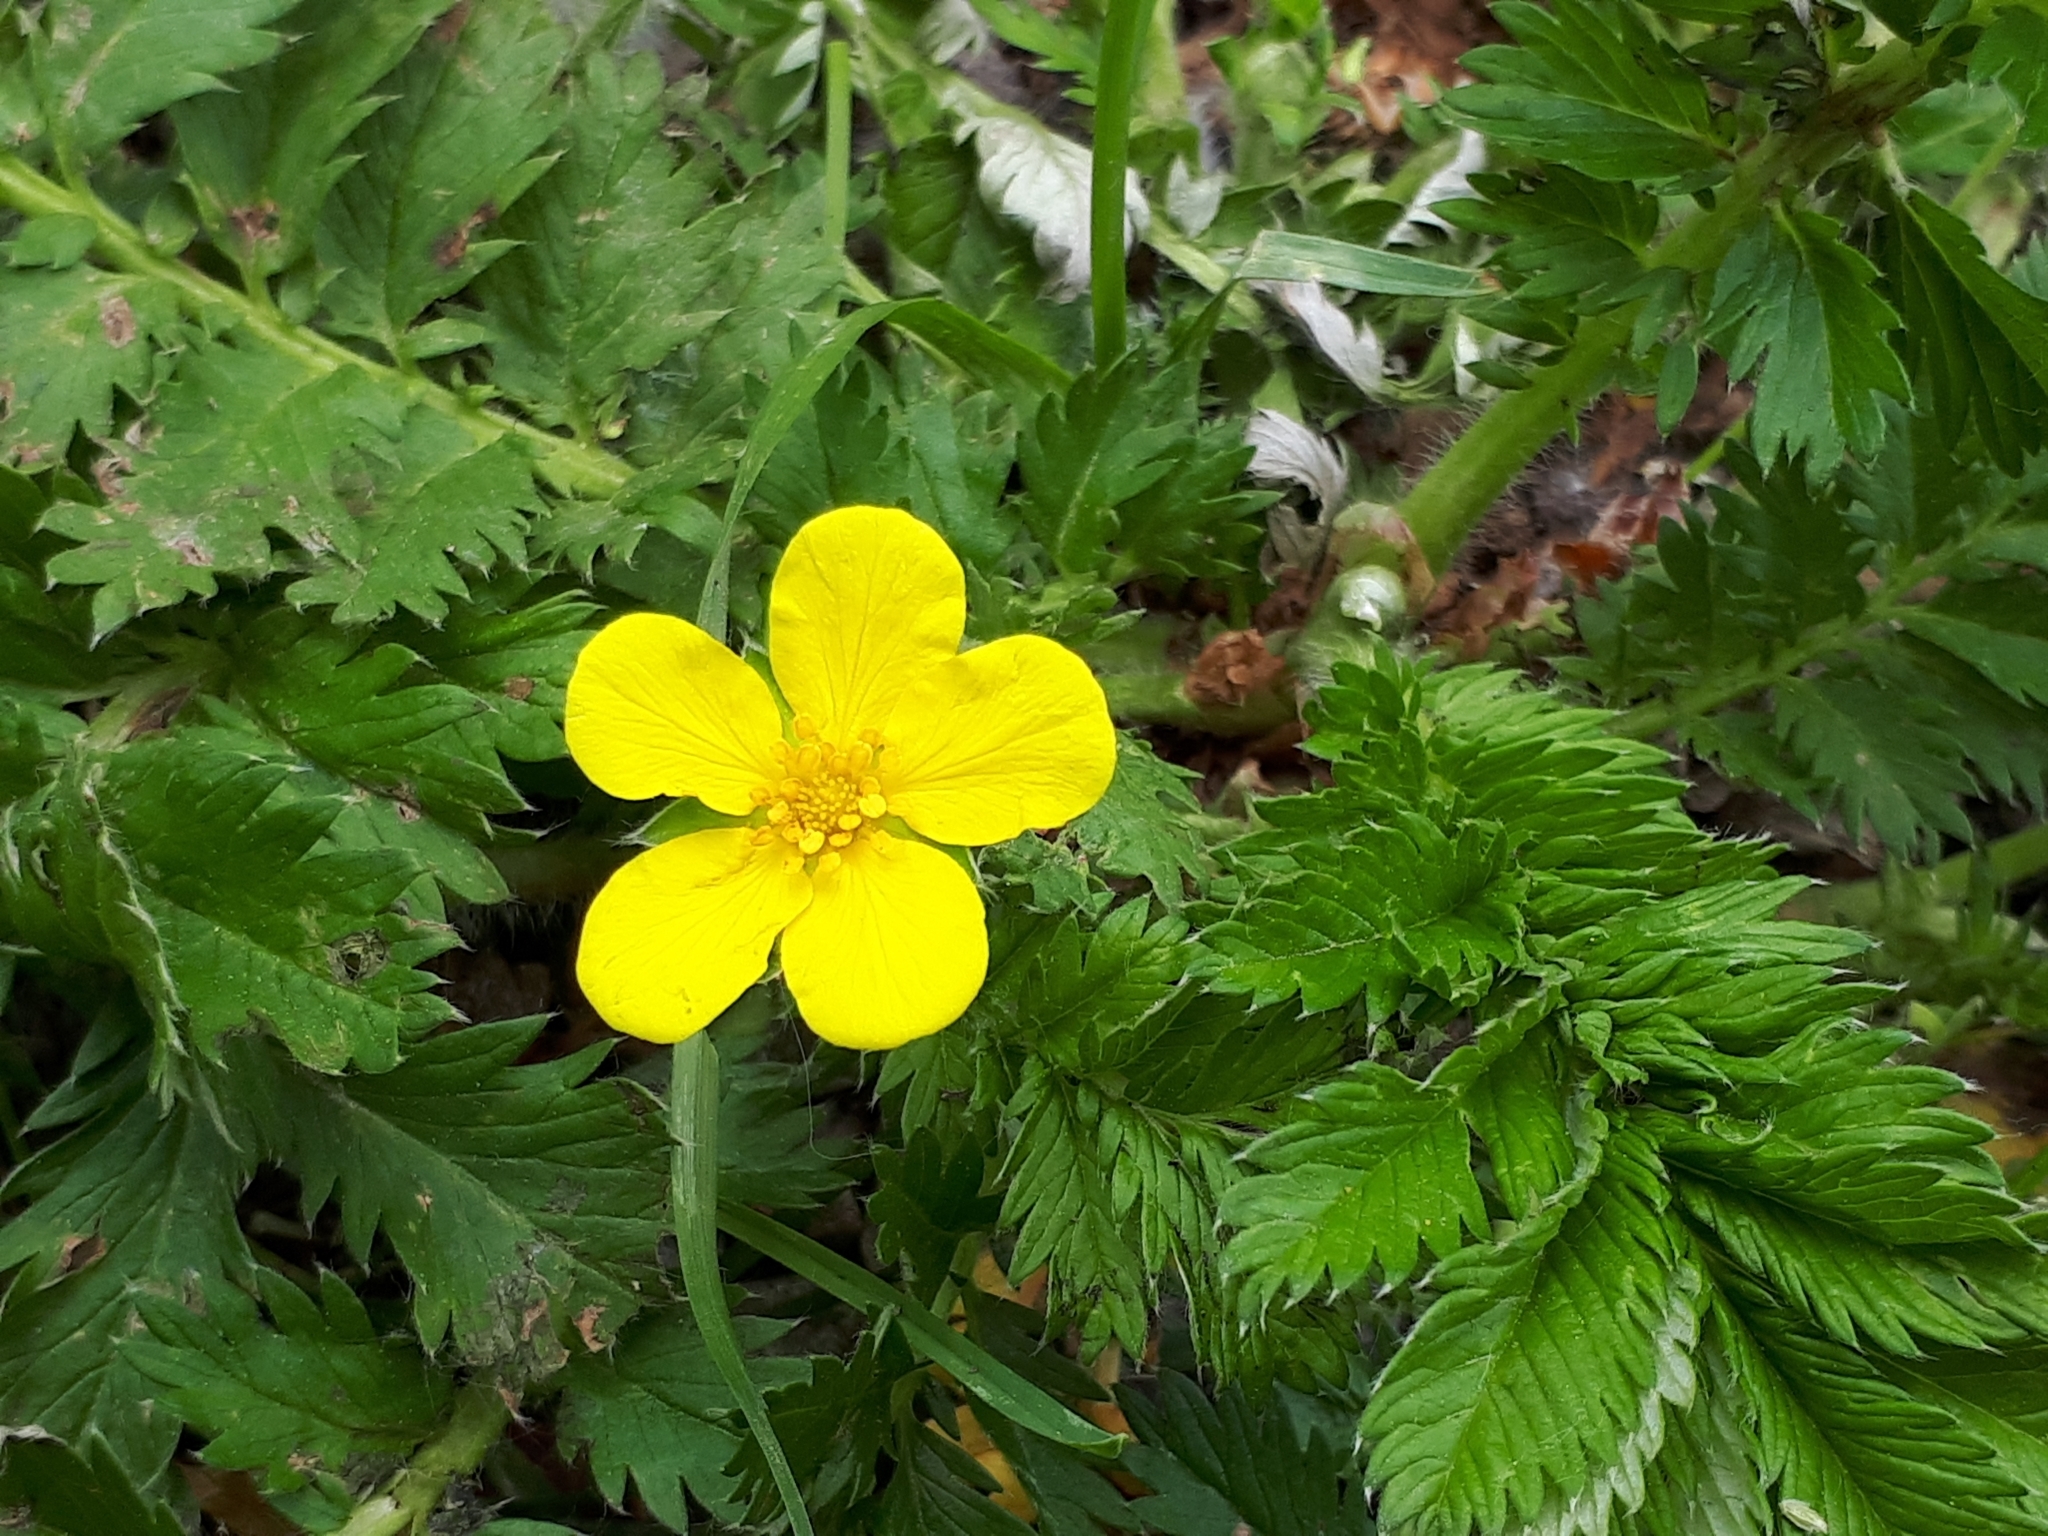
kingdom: Plantae
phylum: Tracheophyta
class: Magnoliopsida
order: Rosales
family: Rosaceae
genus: Argentina
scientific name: Argentina anserina
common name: Common silverweed
